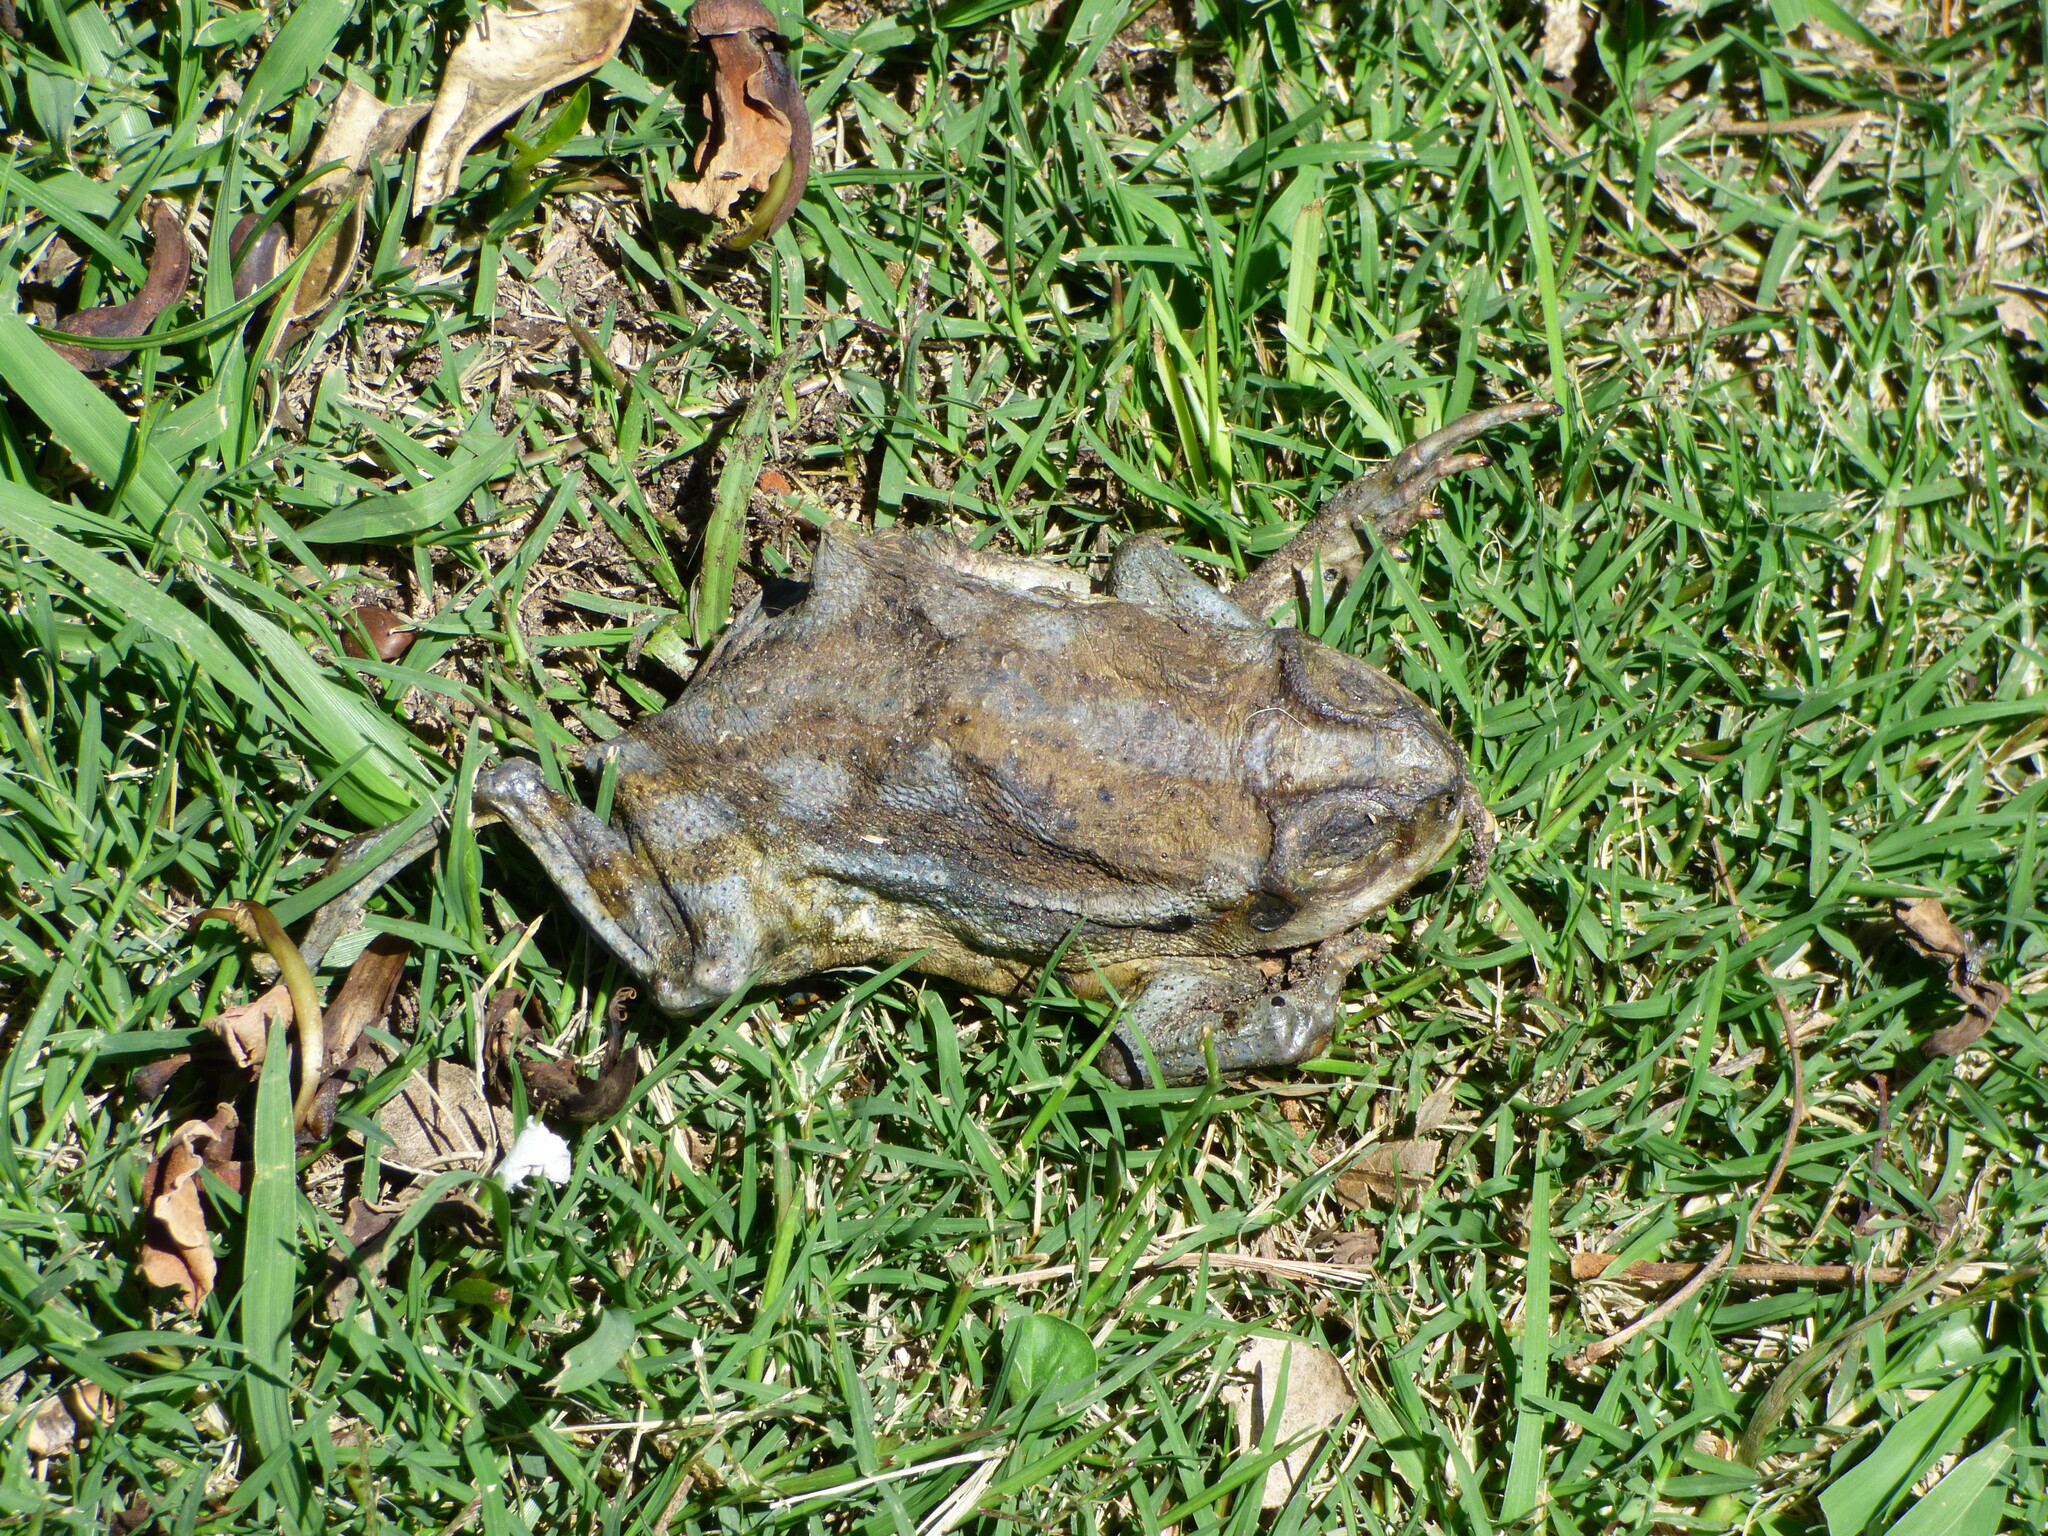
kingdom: Animalia
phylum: Chordata
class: Amphibia
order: Anura
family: Bufonidae
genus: Rhinella
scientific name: Rhinella arenarum
